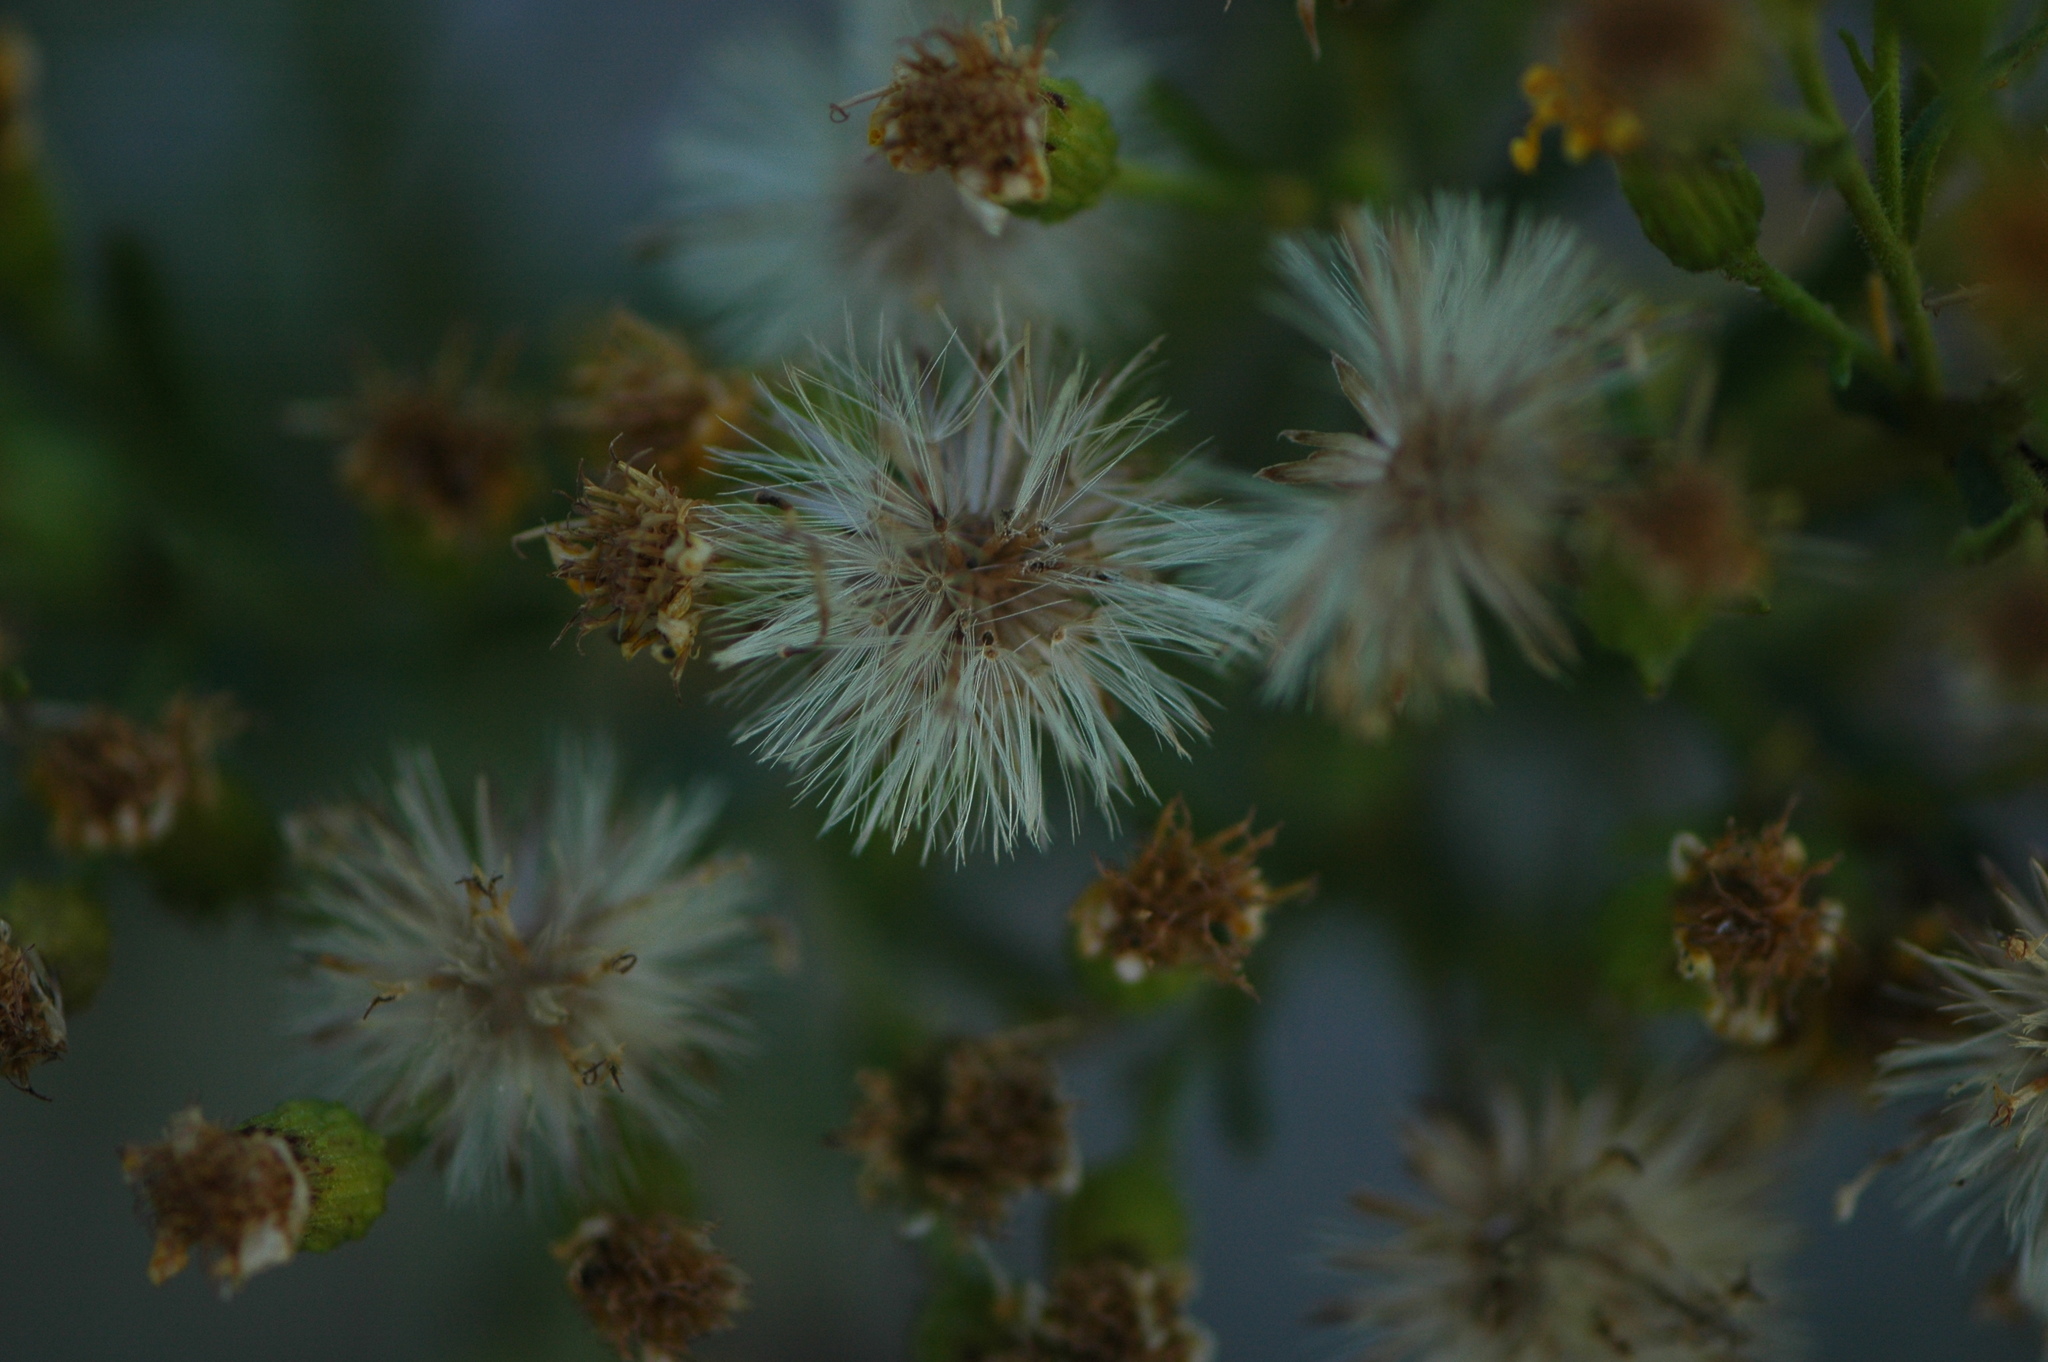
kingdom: Plantae
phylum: Tracheophyta
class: Magnoliopsida
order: Asterales
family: Asteraceae
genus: Dittrichia
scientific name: Dittrichia viscosa
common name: Woody fleabane
